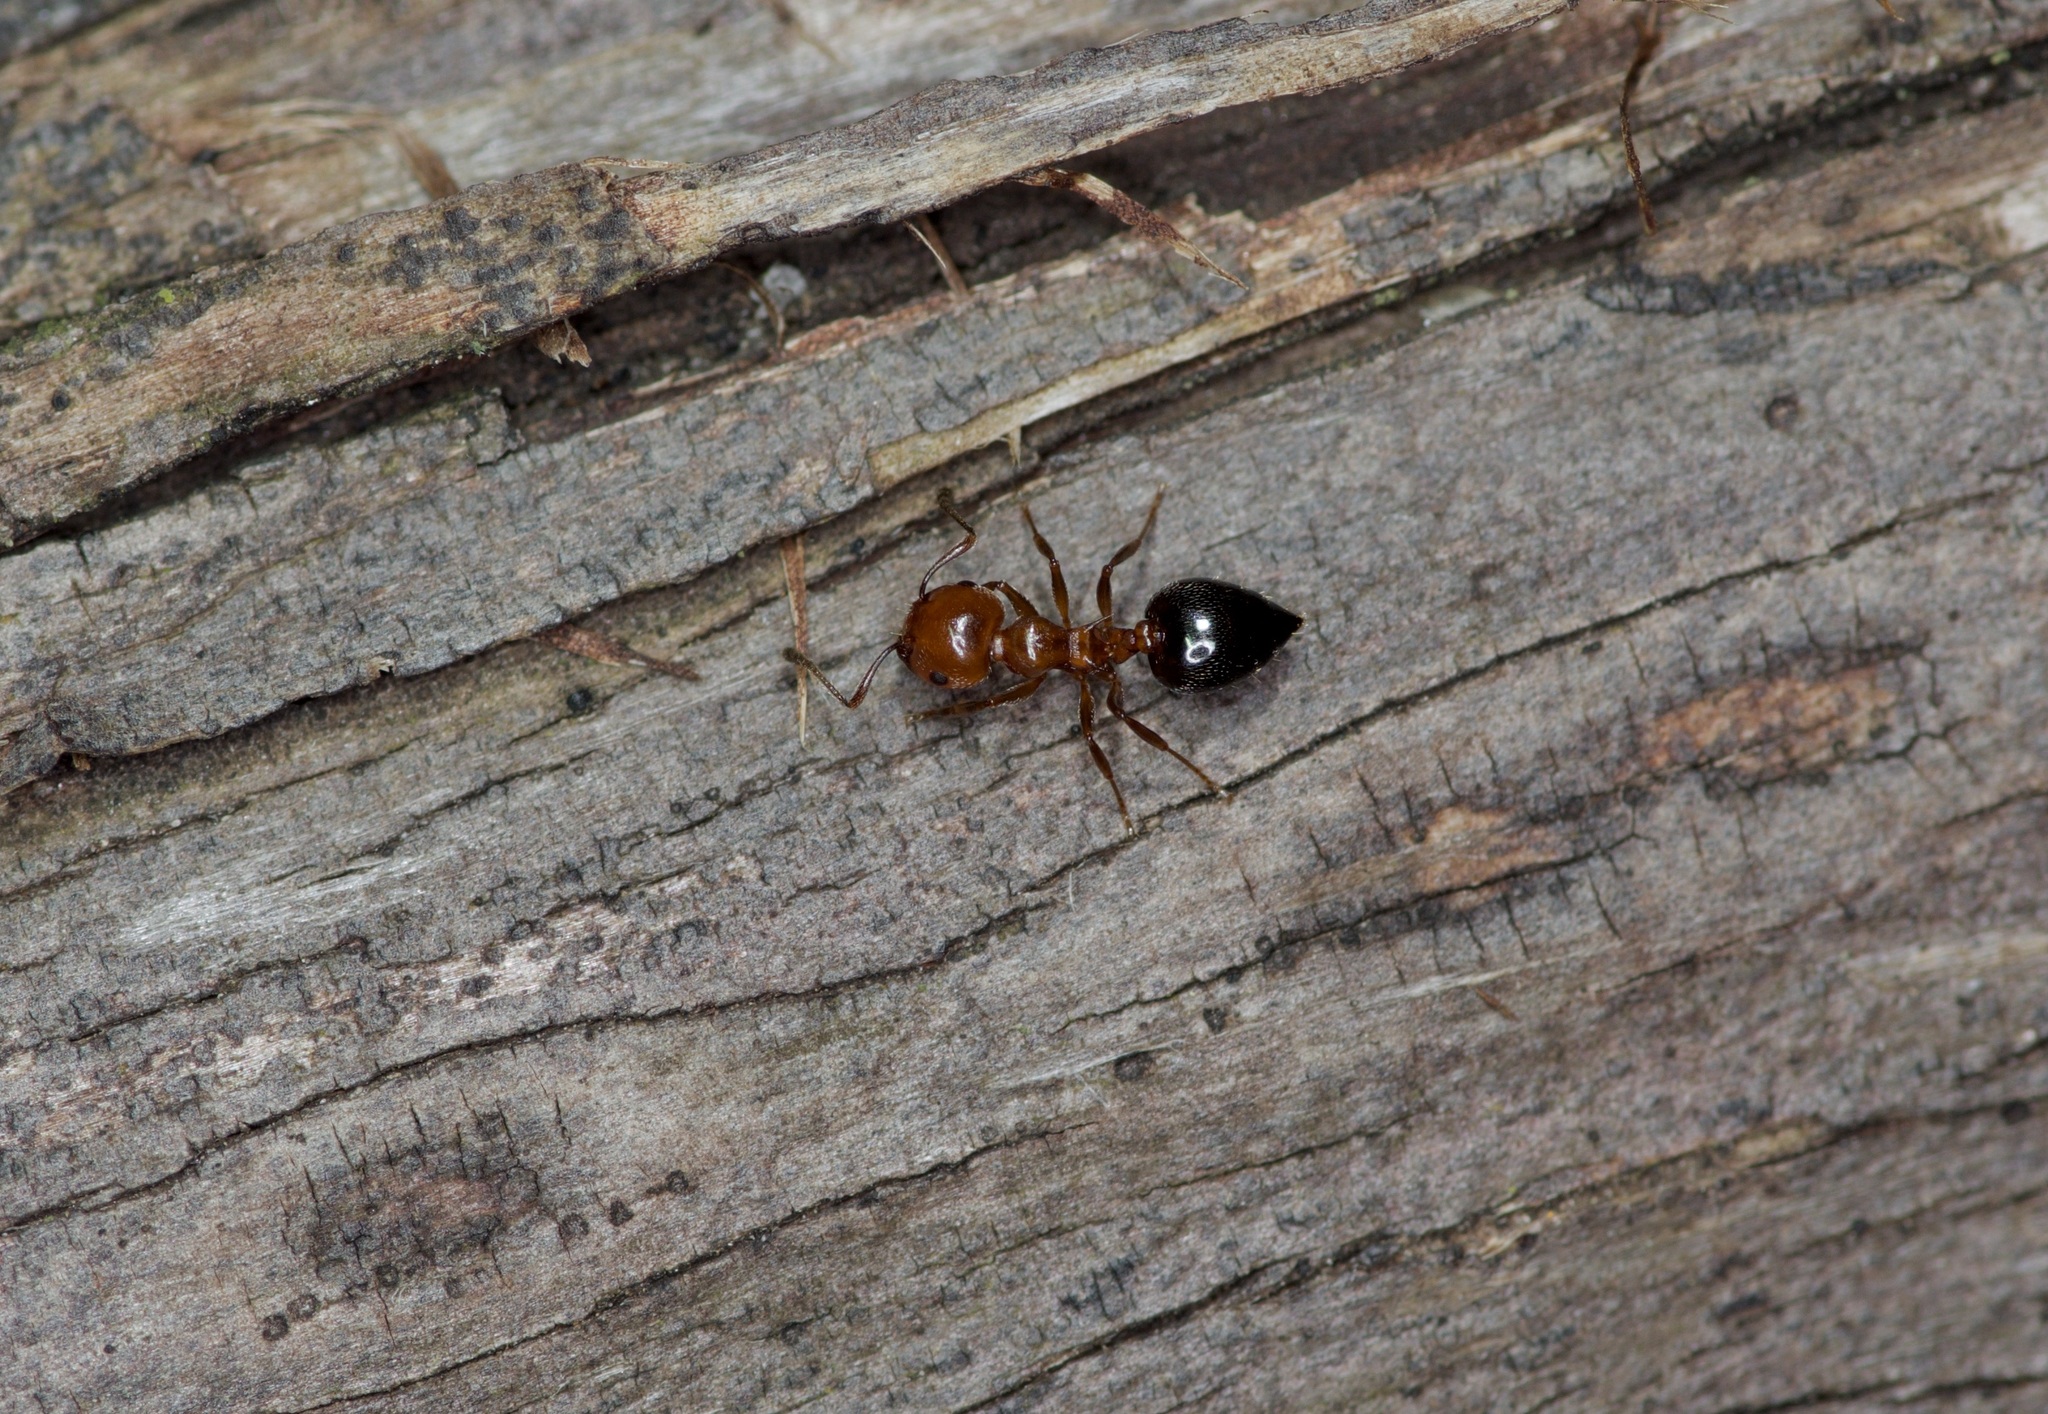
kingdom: Animalia
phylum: Arthropoda
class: Insecta
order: Hymenoptera
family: Formicidae
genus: Crematogaster
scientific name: Crematogaster laeviuscula
